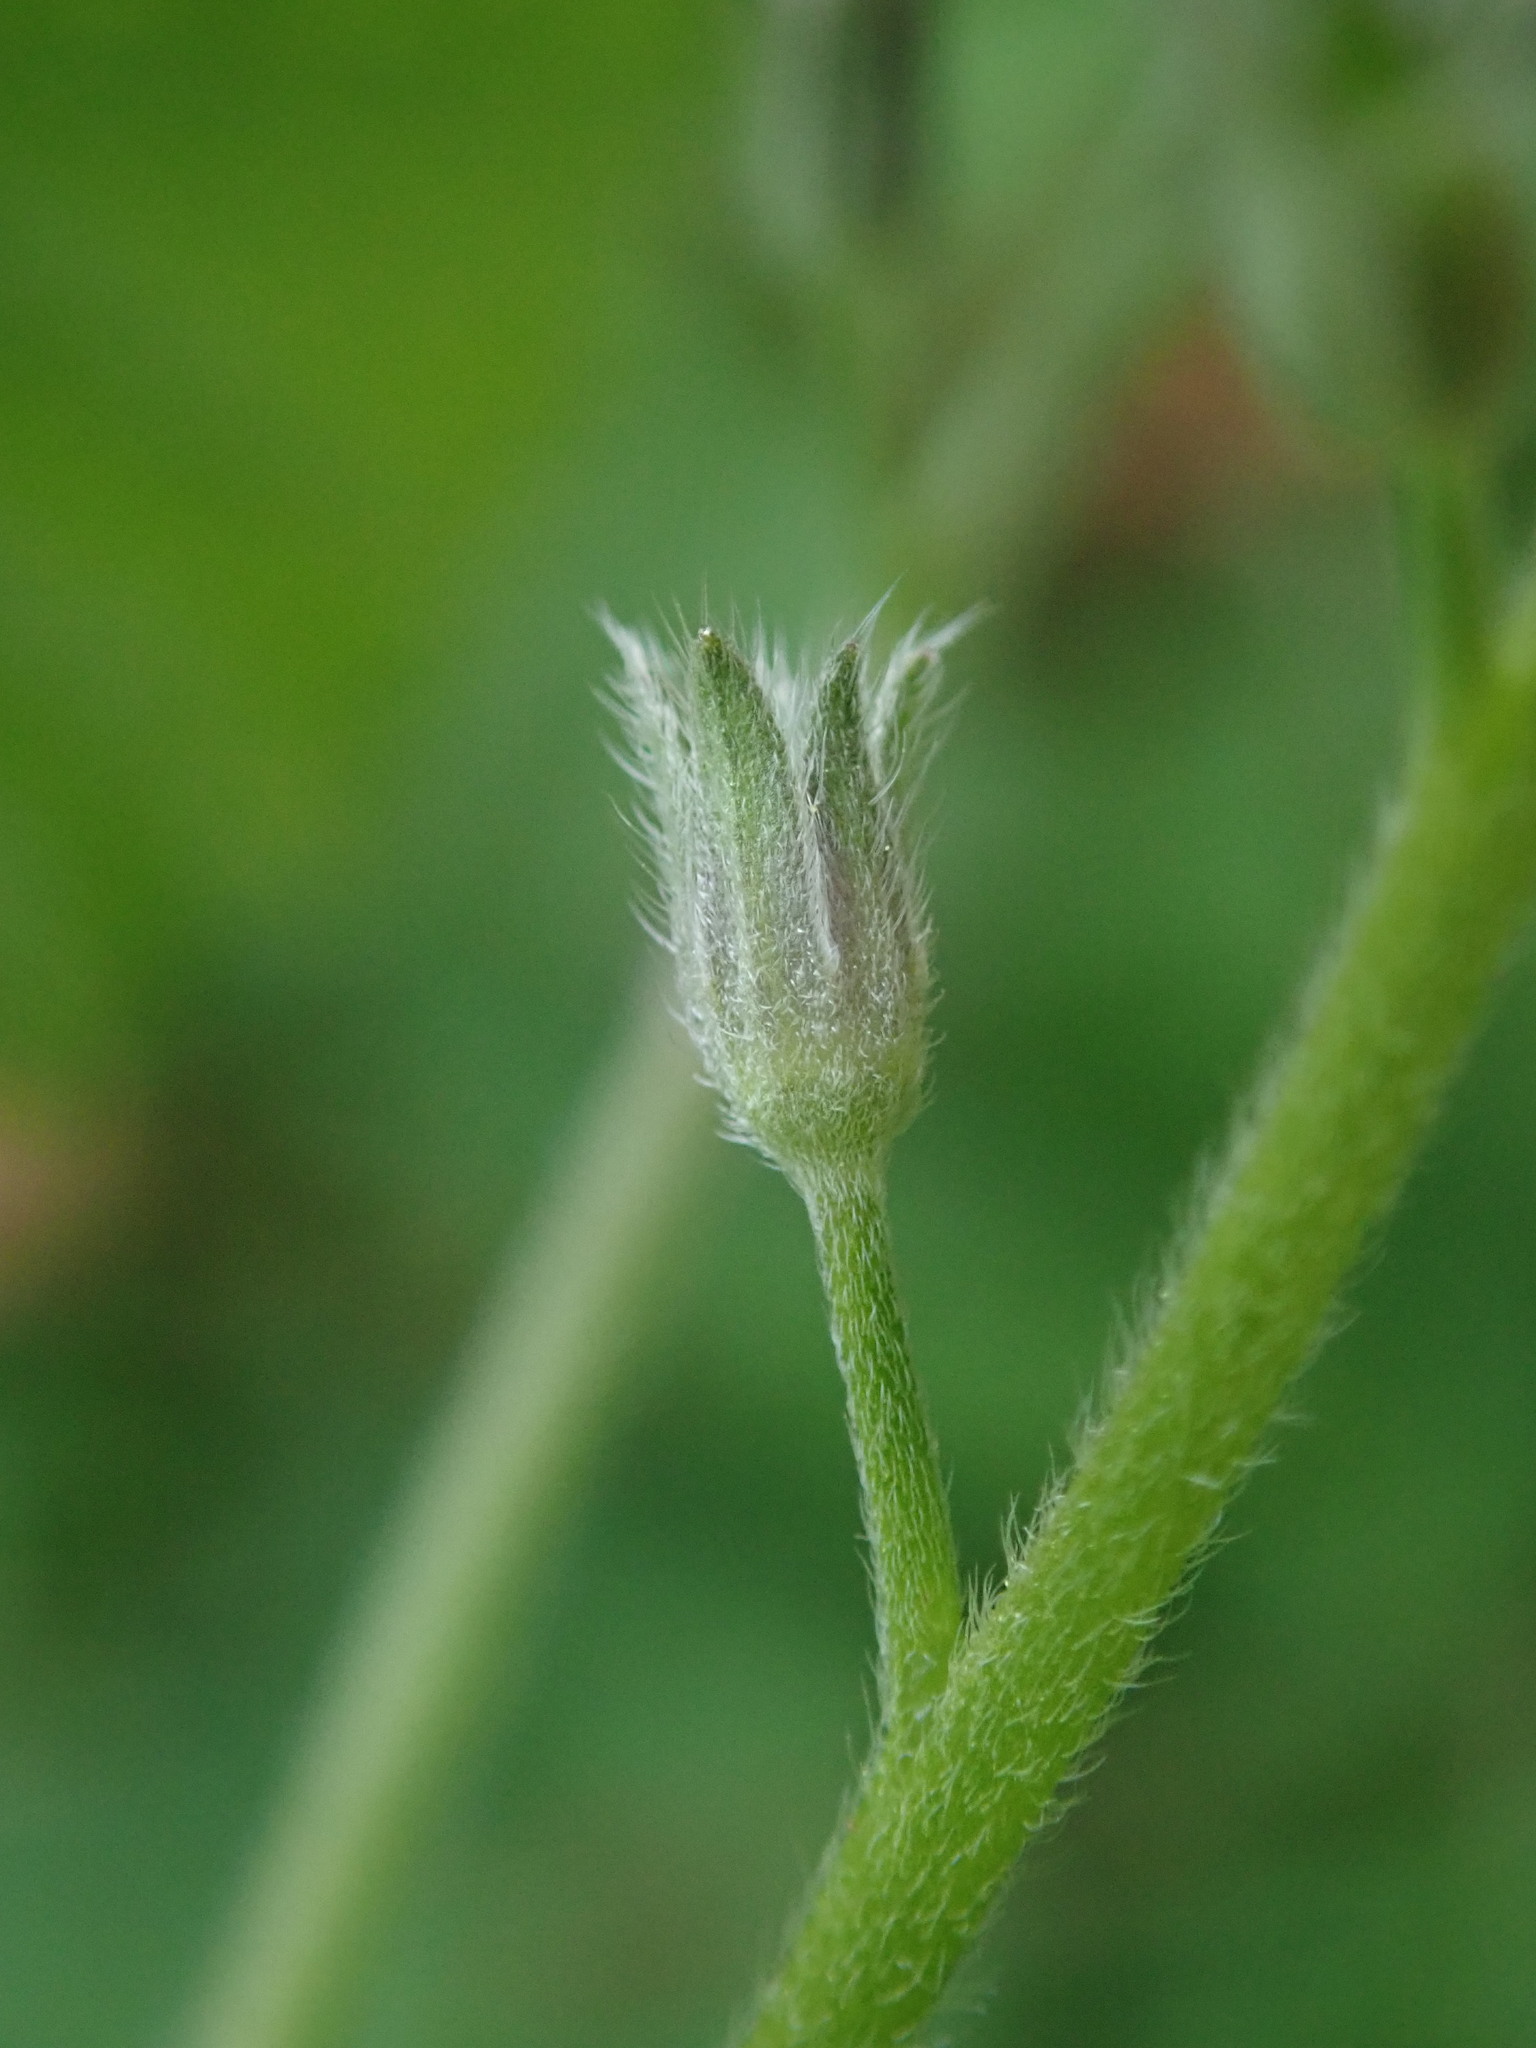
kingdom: Plantae
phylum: Tracheophyta
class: Magnoliopsida
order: Boraginales
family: Boraginaceae
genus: Myosotis
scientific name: Myosotis sylvatica
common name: Wood forget-me-not
